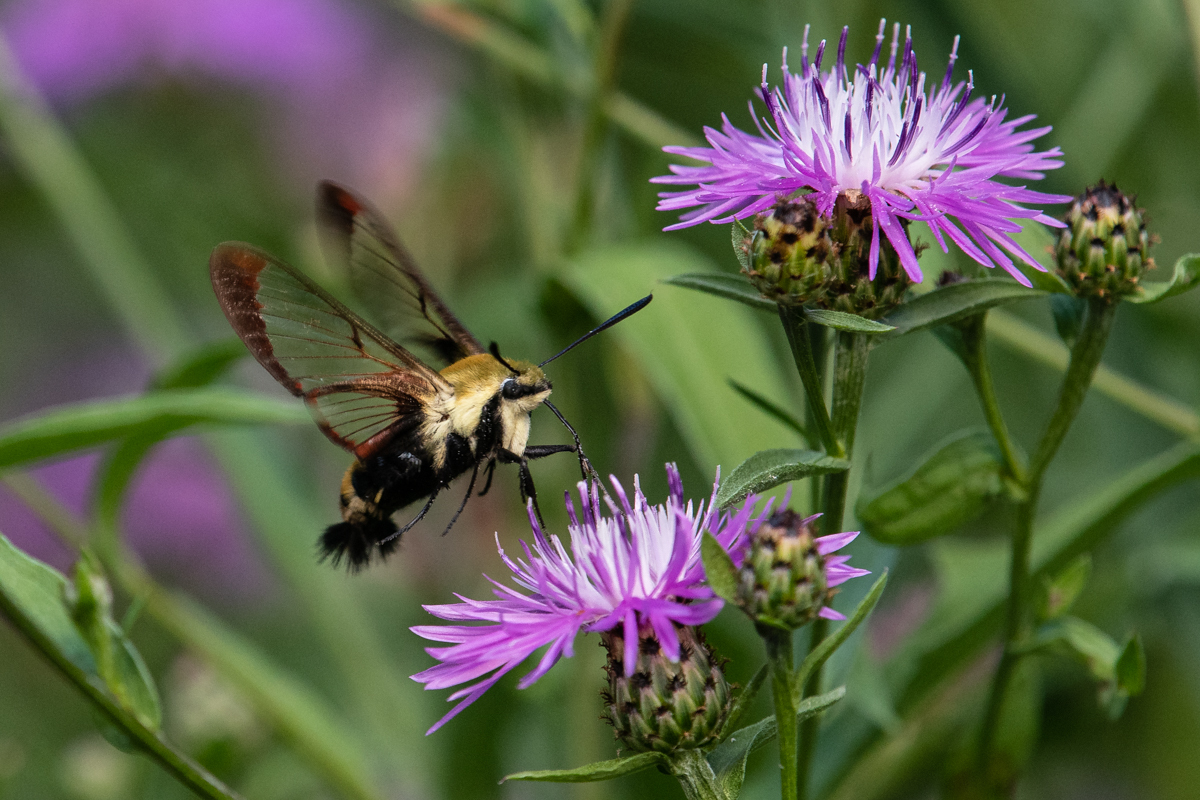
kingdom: Animalia
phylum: Arthropoda
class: Insecta
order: Lepidoptera
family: Sphingidae
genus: Hemaris
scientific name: Hemaris diffinis
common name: Bumblebee moth
